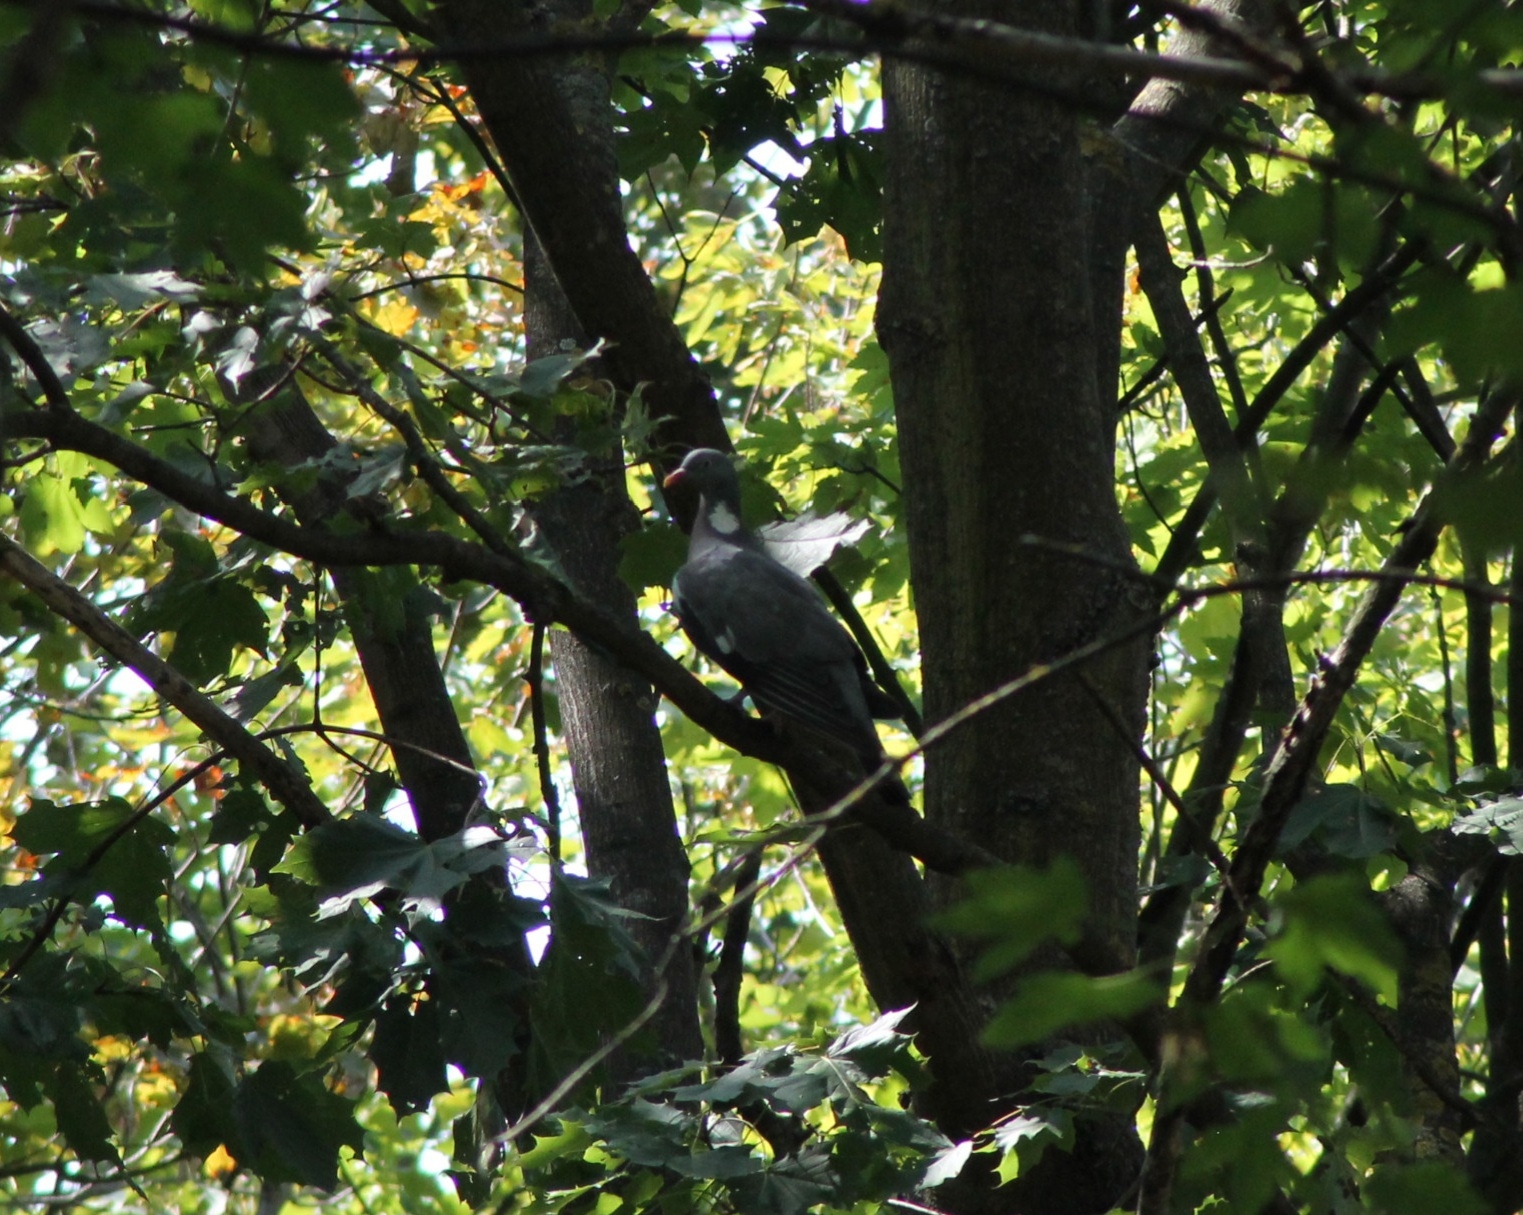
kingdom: Animalia
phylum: Chordata
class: Aves
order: Columbiformes
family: Columbidae
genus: Columba
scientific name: Columba palumbus
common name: Common wood pigeon
